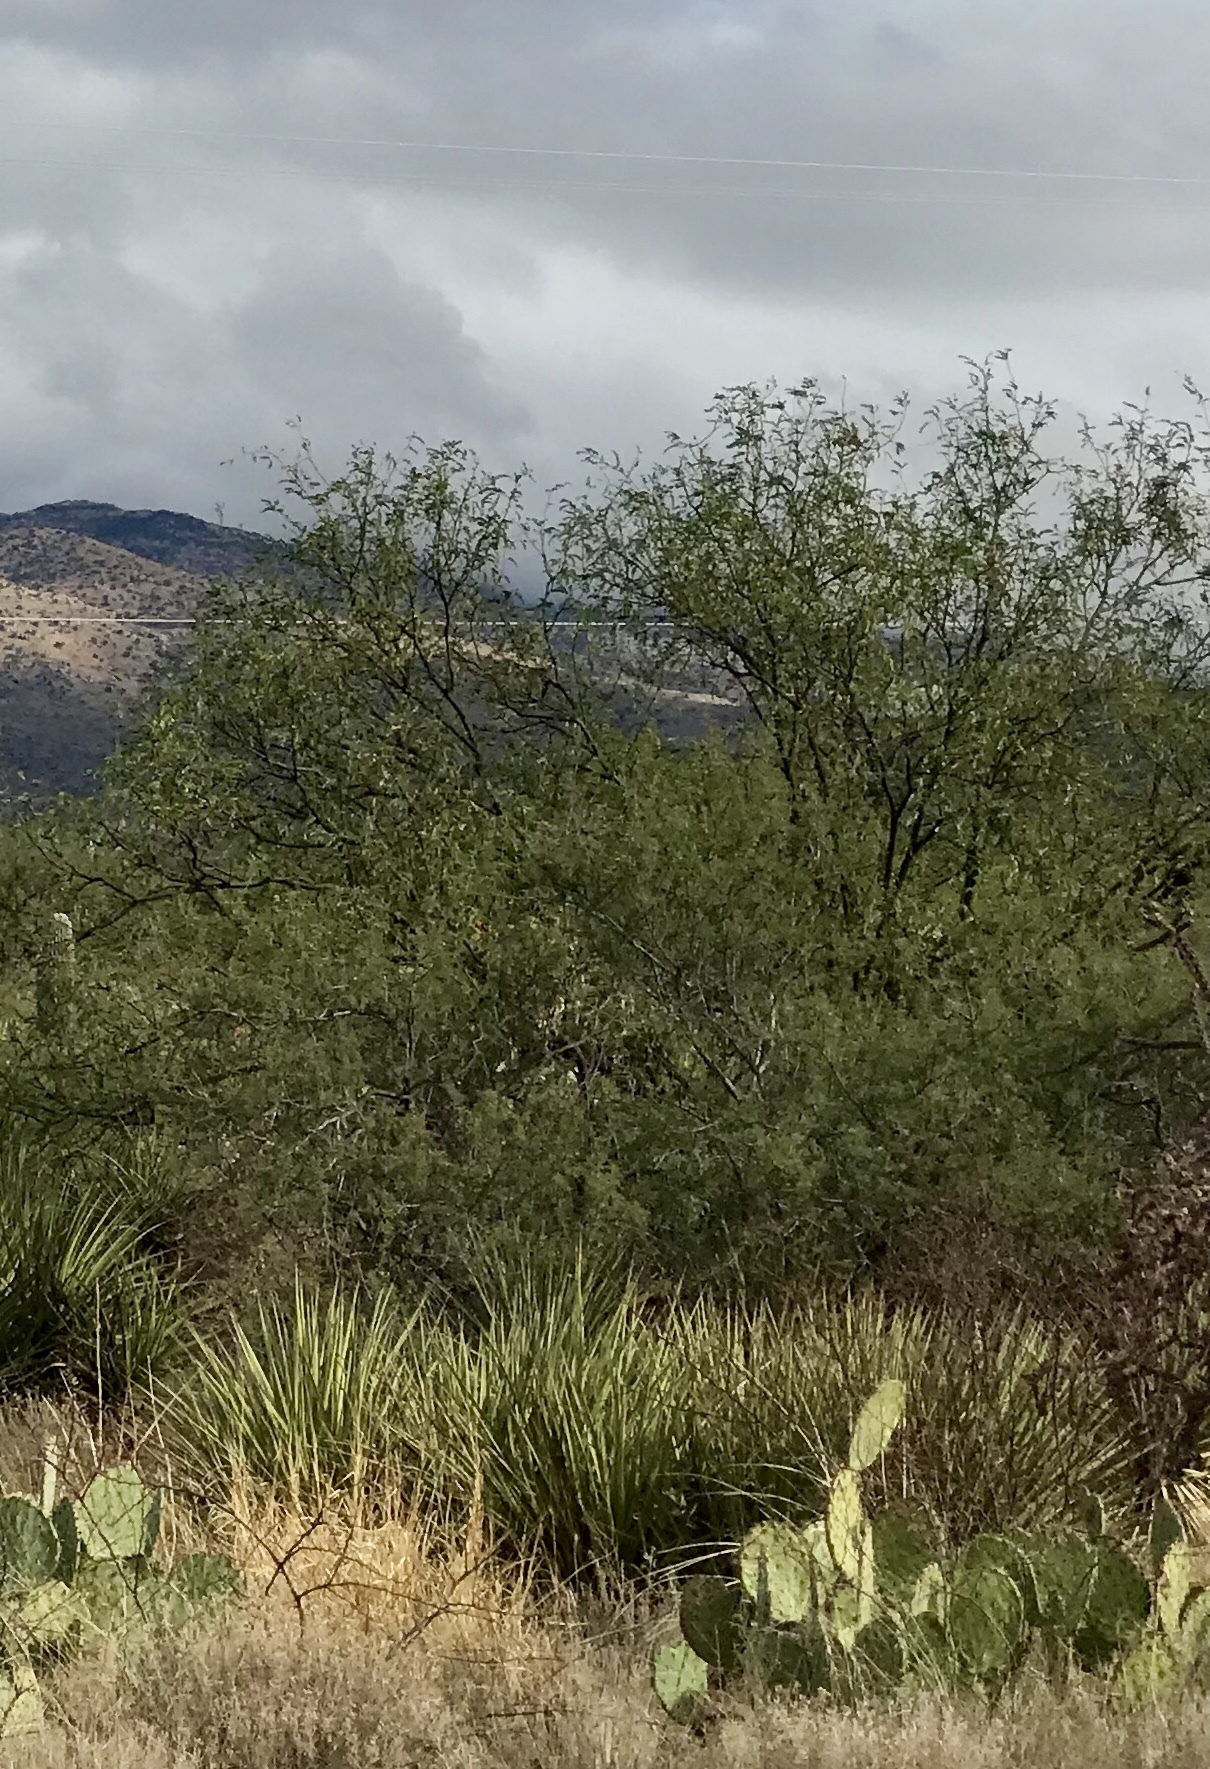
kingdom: Plantae
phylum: Tracheophyta
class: Magnoliopsida
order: Fabales
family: Fabaceae
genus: Prosopis
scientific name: Prosopis velutina
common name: Velvet mesquite
